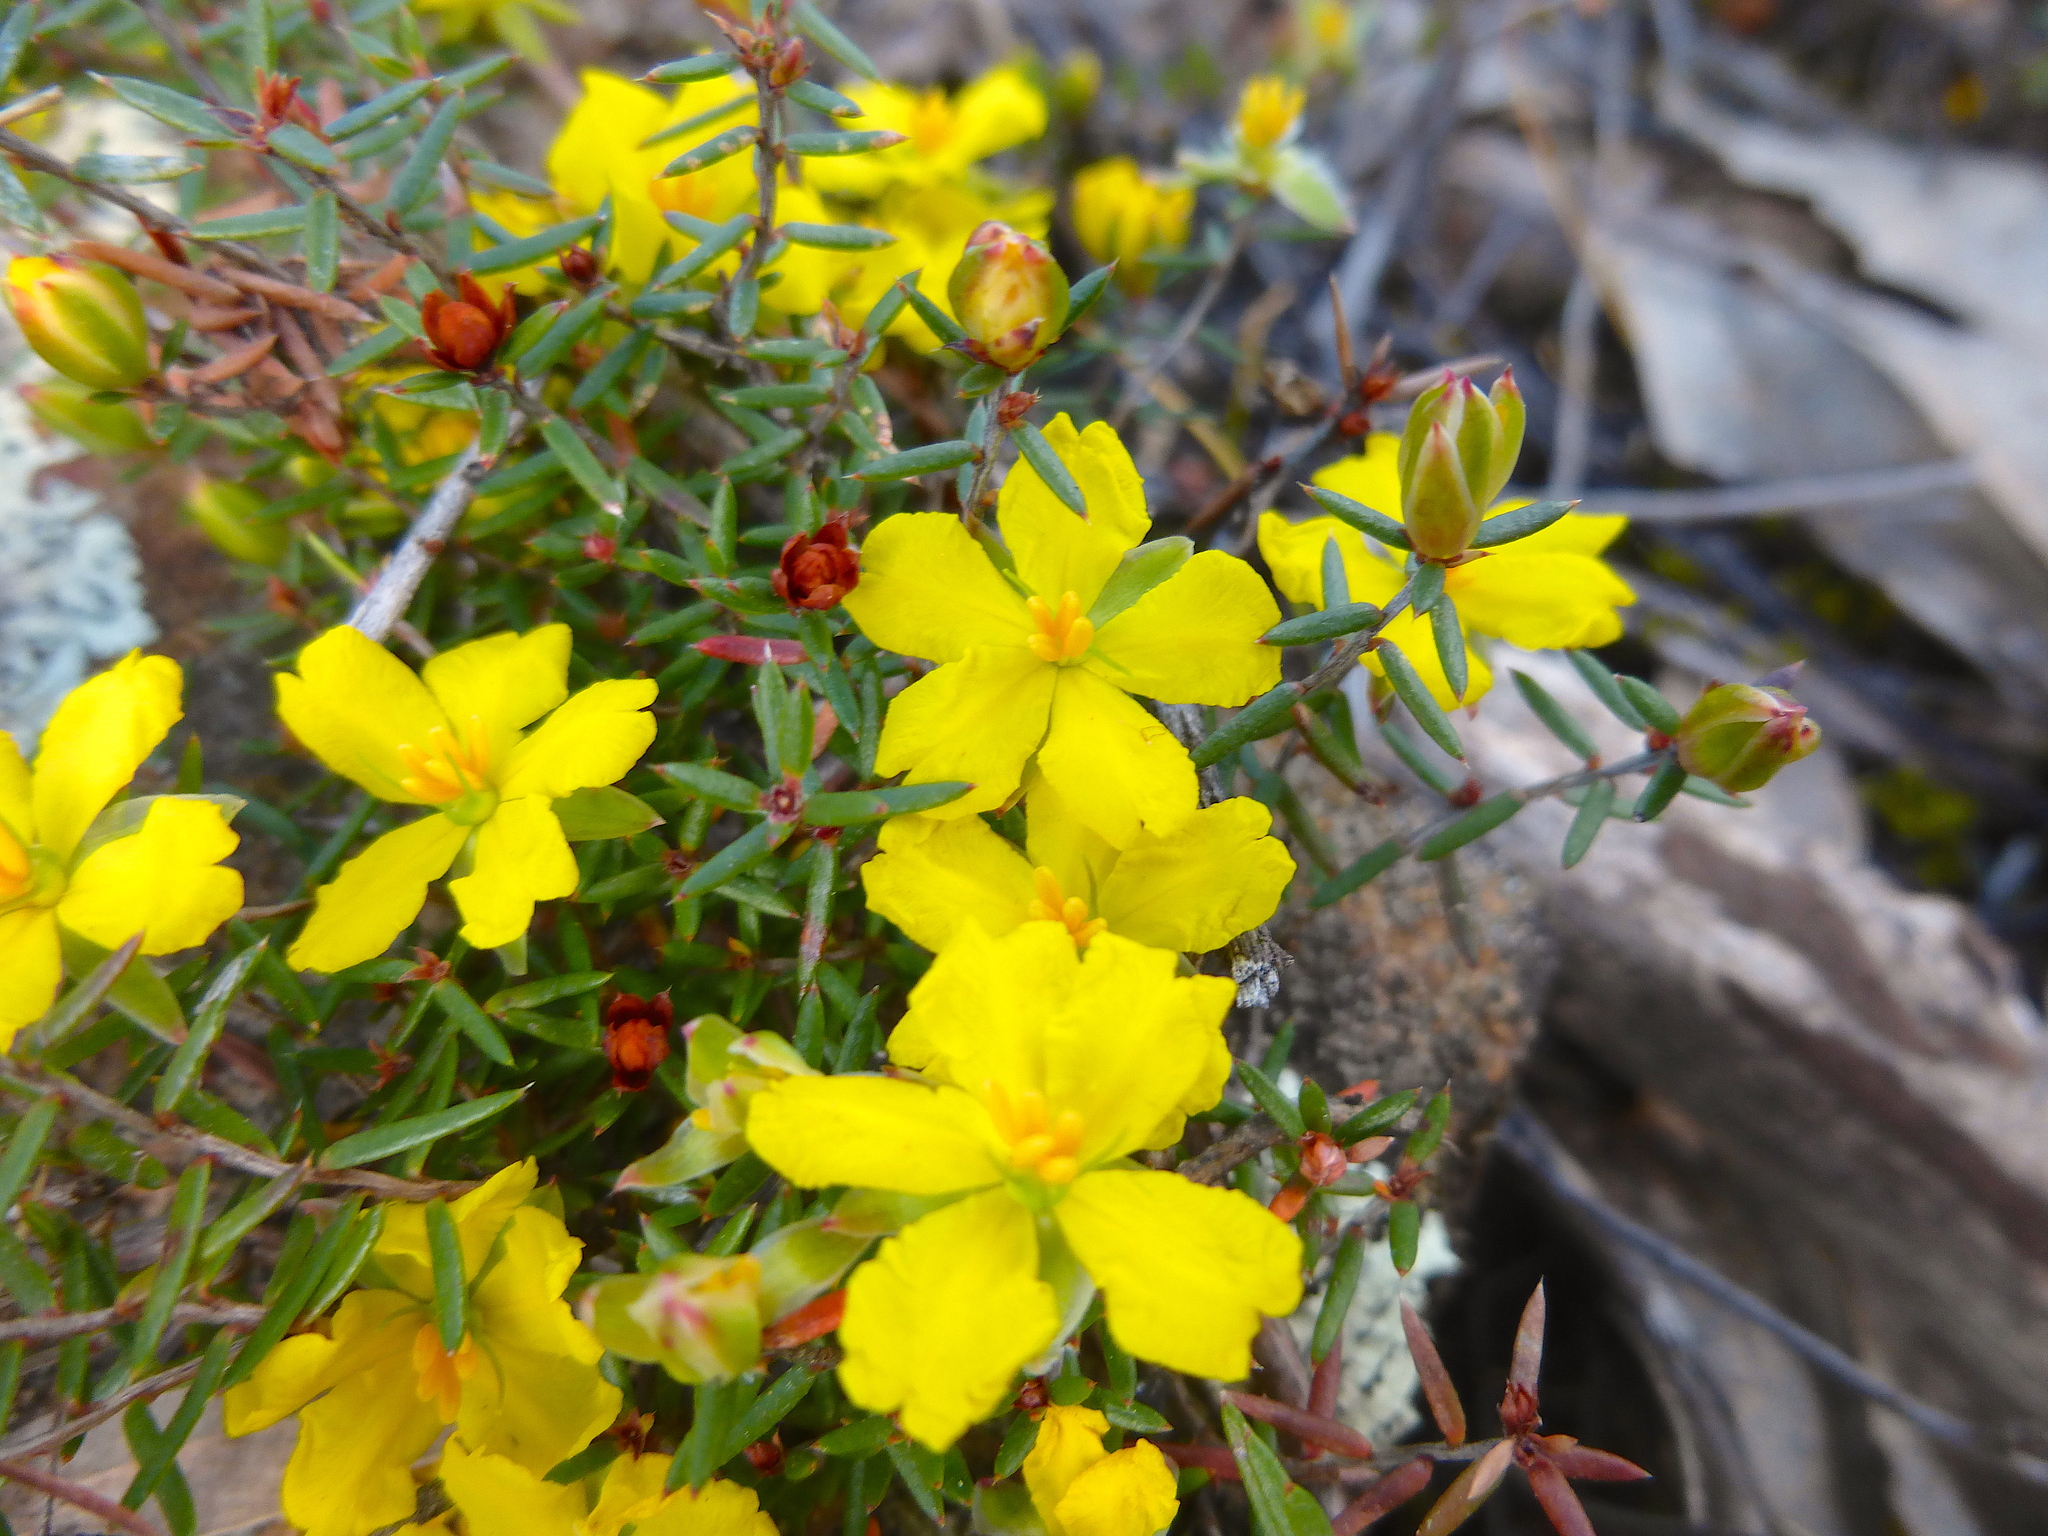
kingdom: Plantae
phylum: Tracheophyta
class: Magnoliopsida
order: Dilleniales
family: Dilleniaceae
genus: Hibbertia
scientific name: Hibbertia exutiacies
